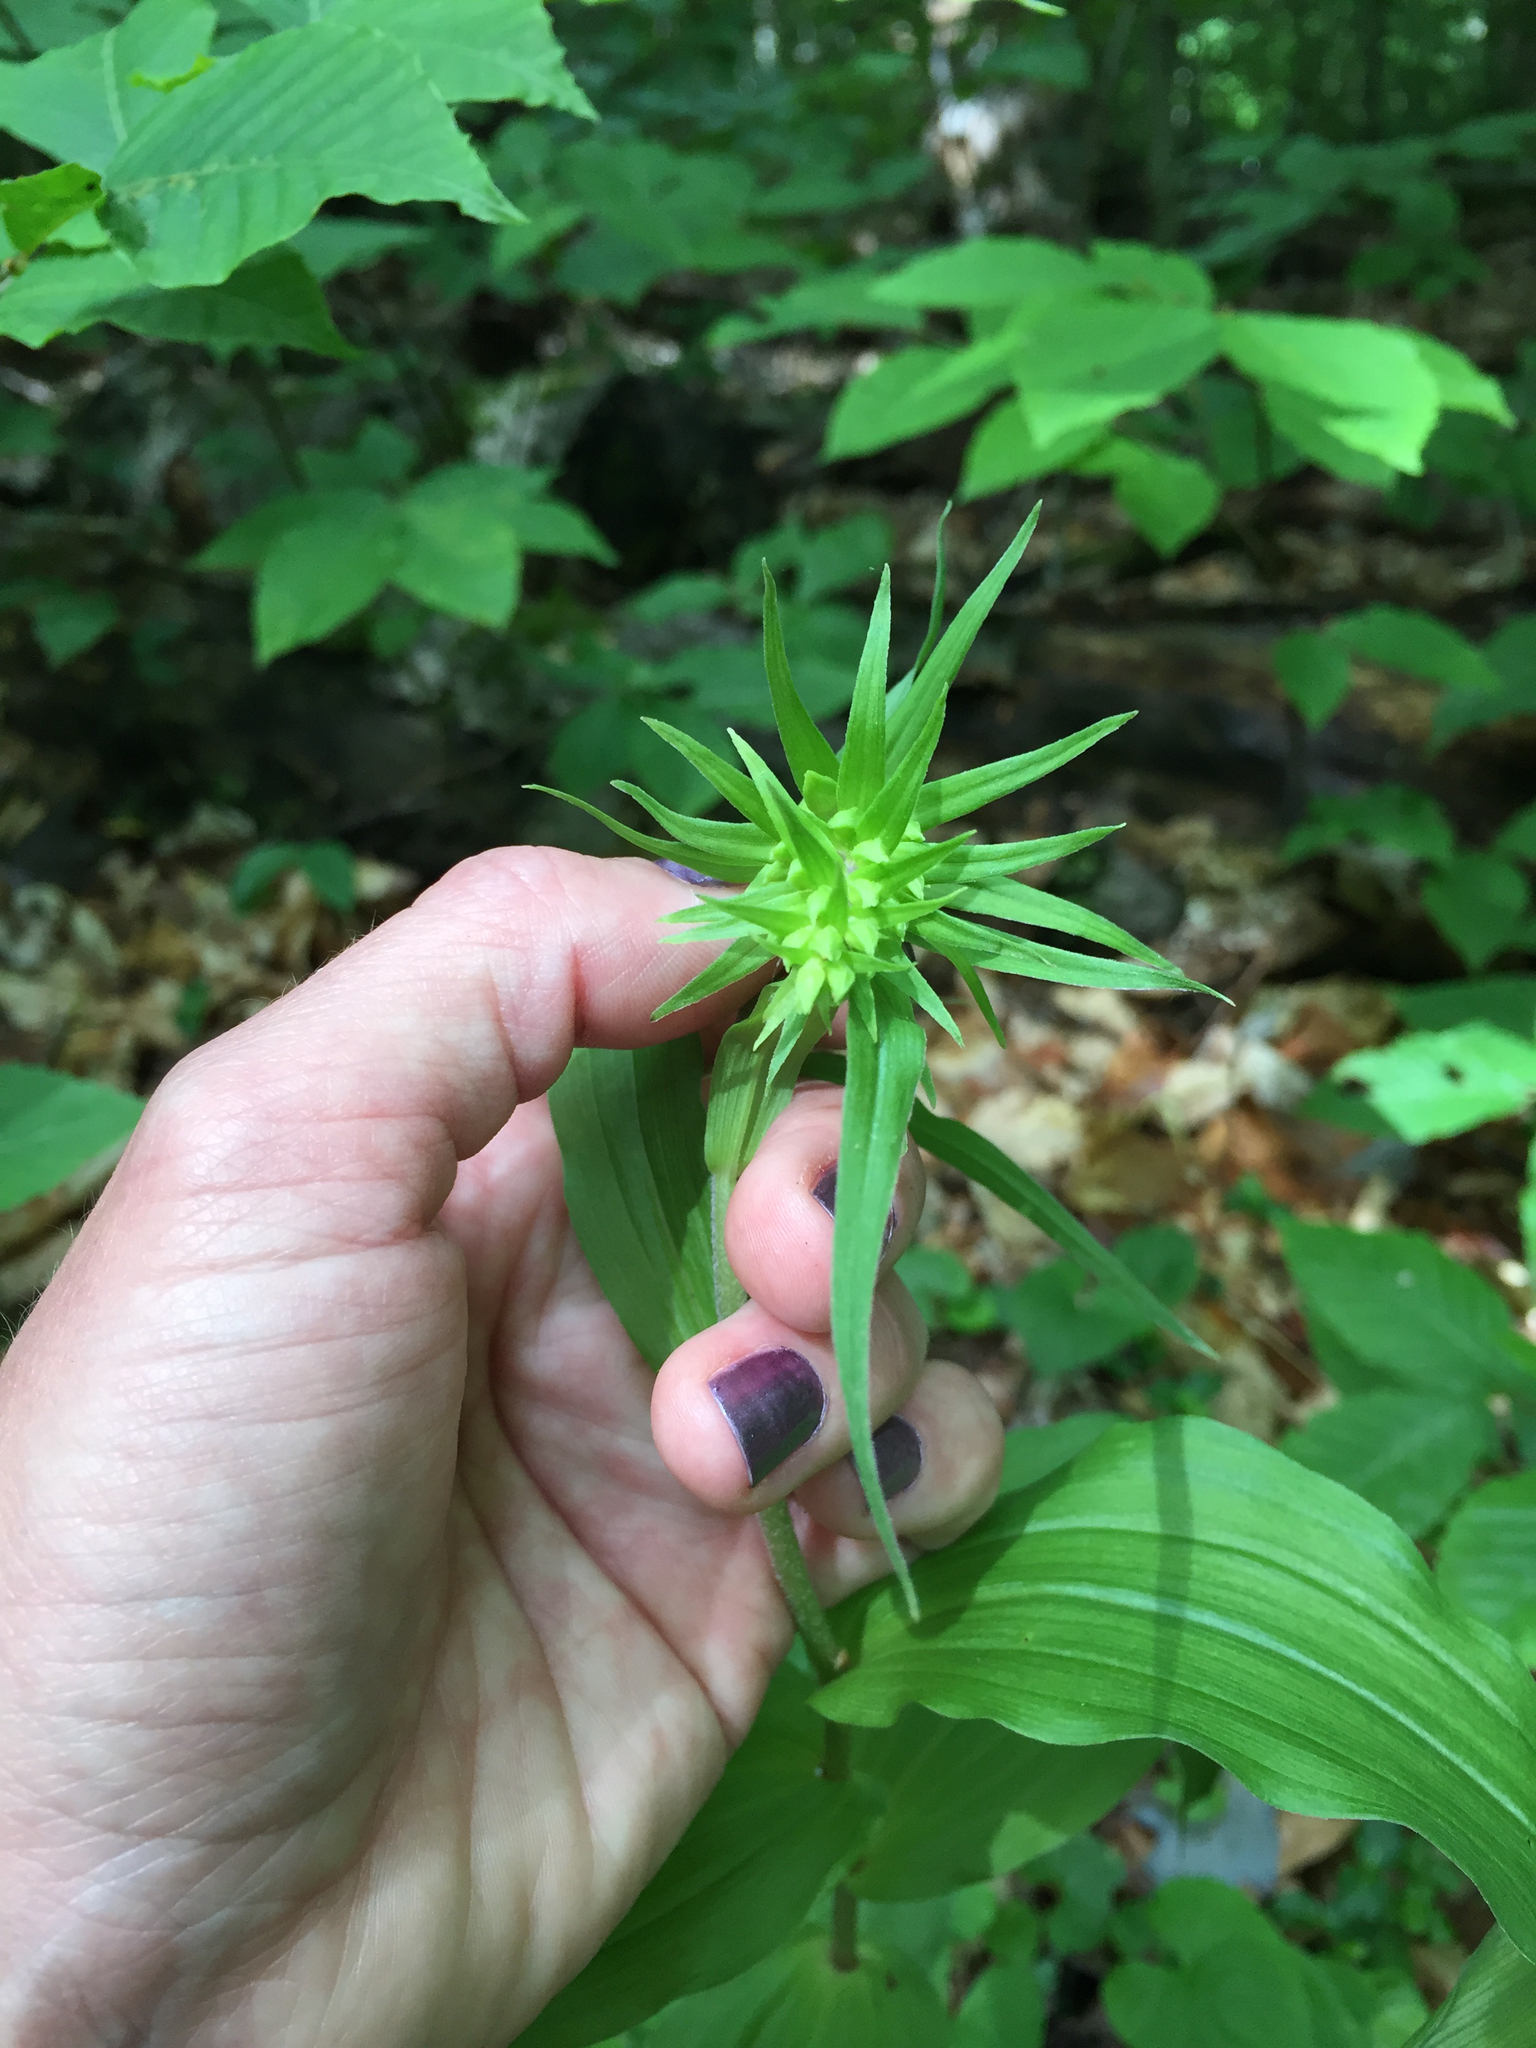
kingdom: Plantae
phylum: Tracheophyta
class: Liliopsida
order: Asparagales
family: Orchidaceae
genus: Epipactis
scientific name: Epipactis helleborine
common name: Broad-leaved helleborine
